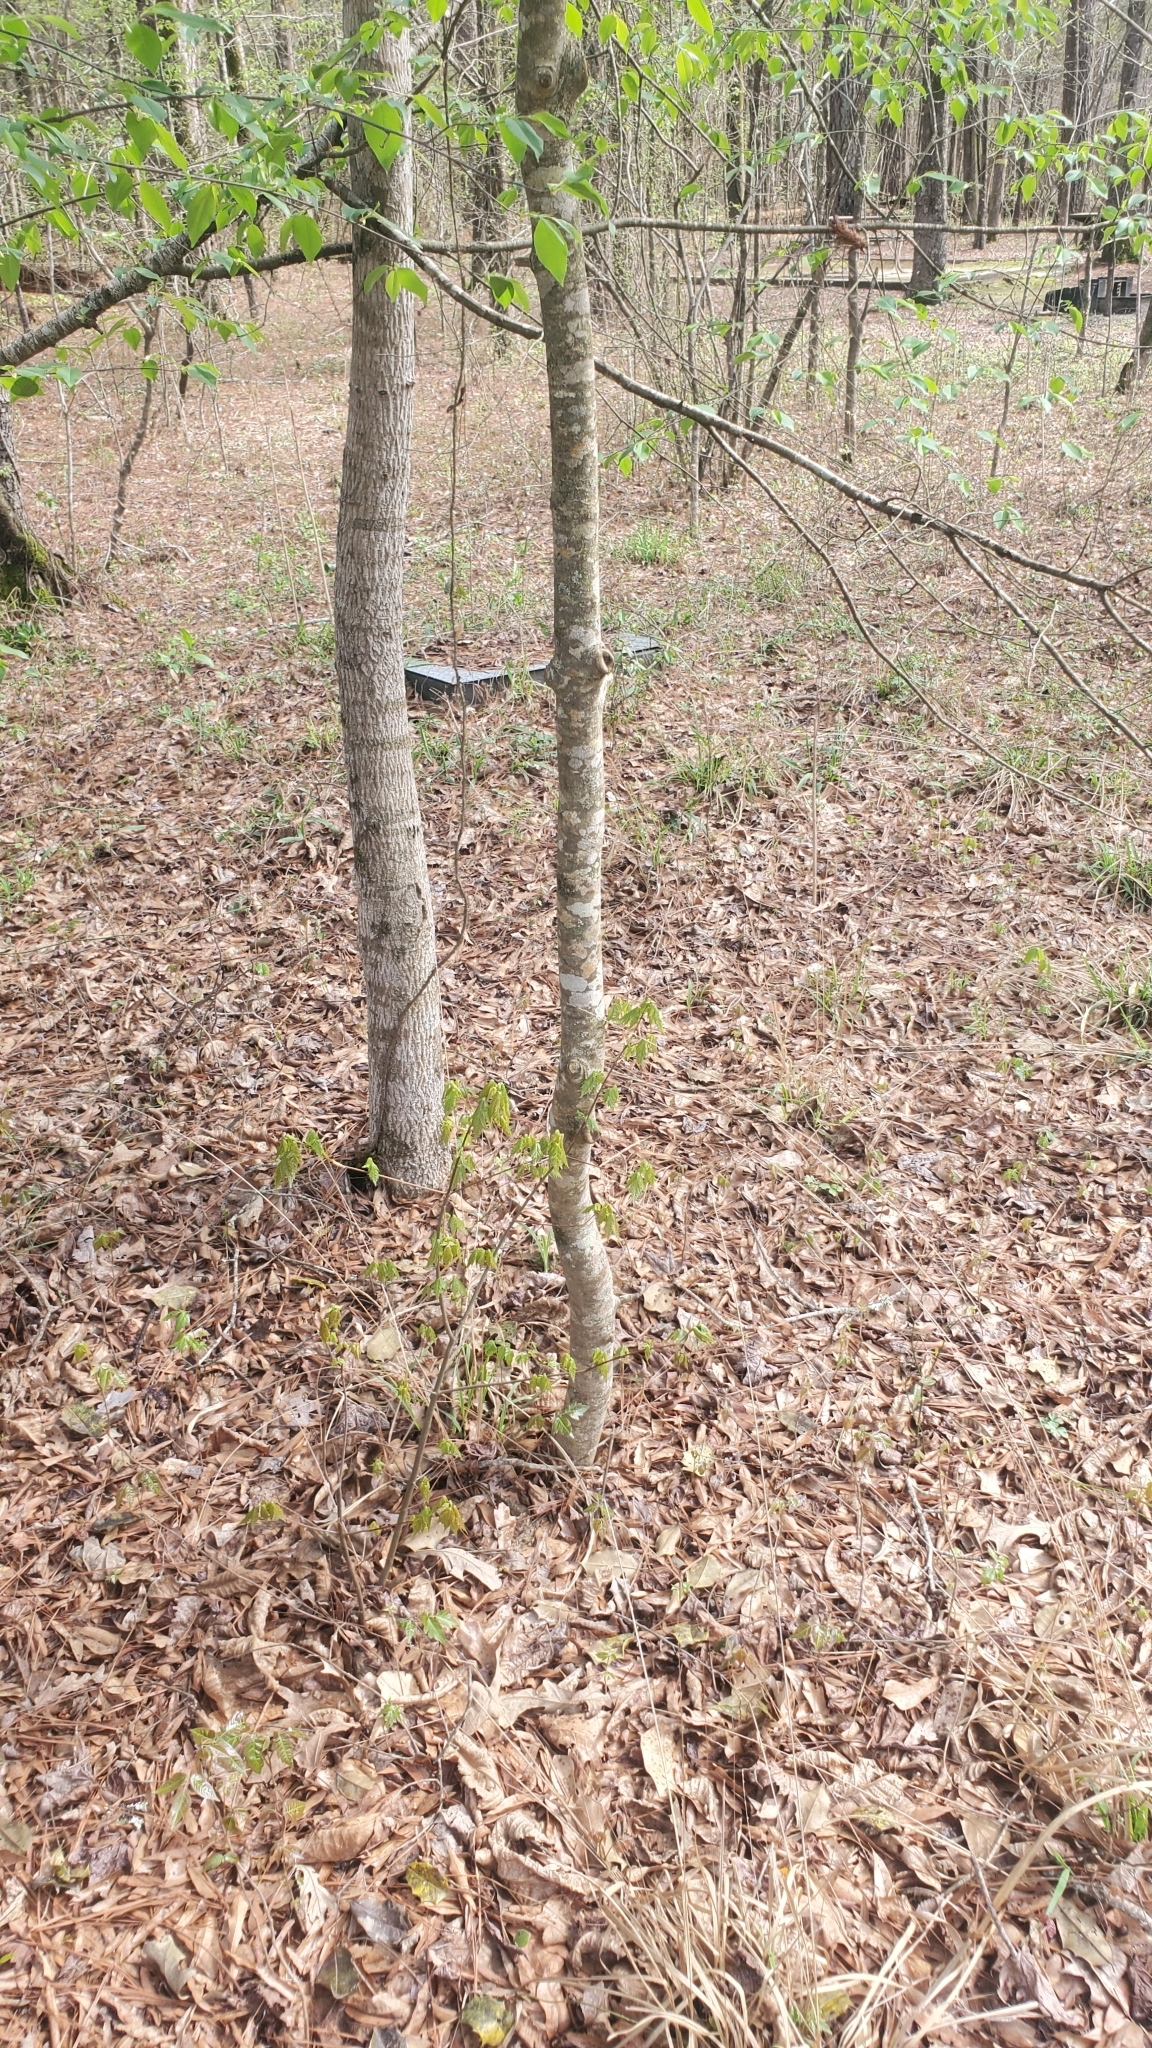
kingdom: Plantae
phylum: Tracheophyta
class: Magnoliopsida
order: Aquifoliales
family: Aquifoliaceae
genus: Ilex
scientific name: Ilex opaca
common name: American holly
